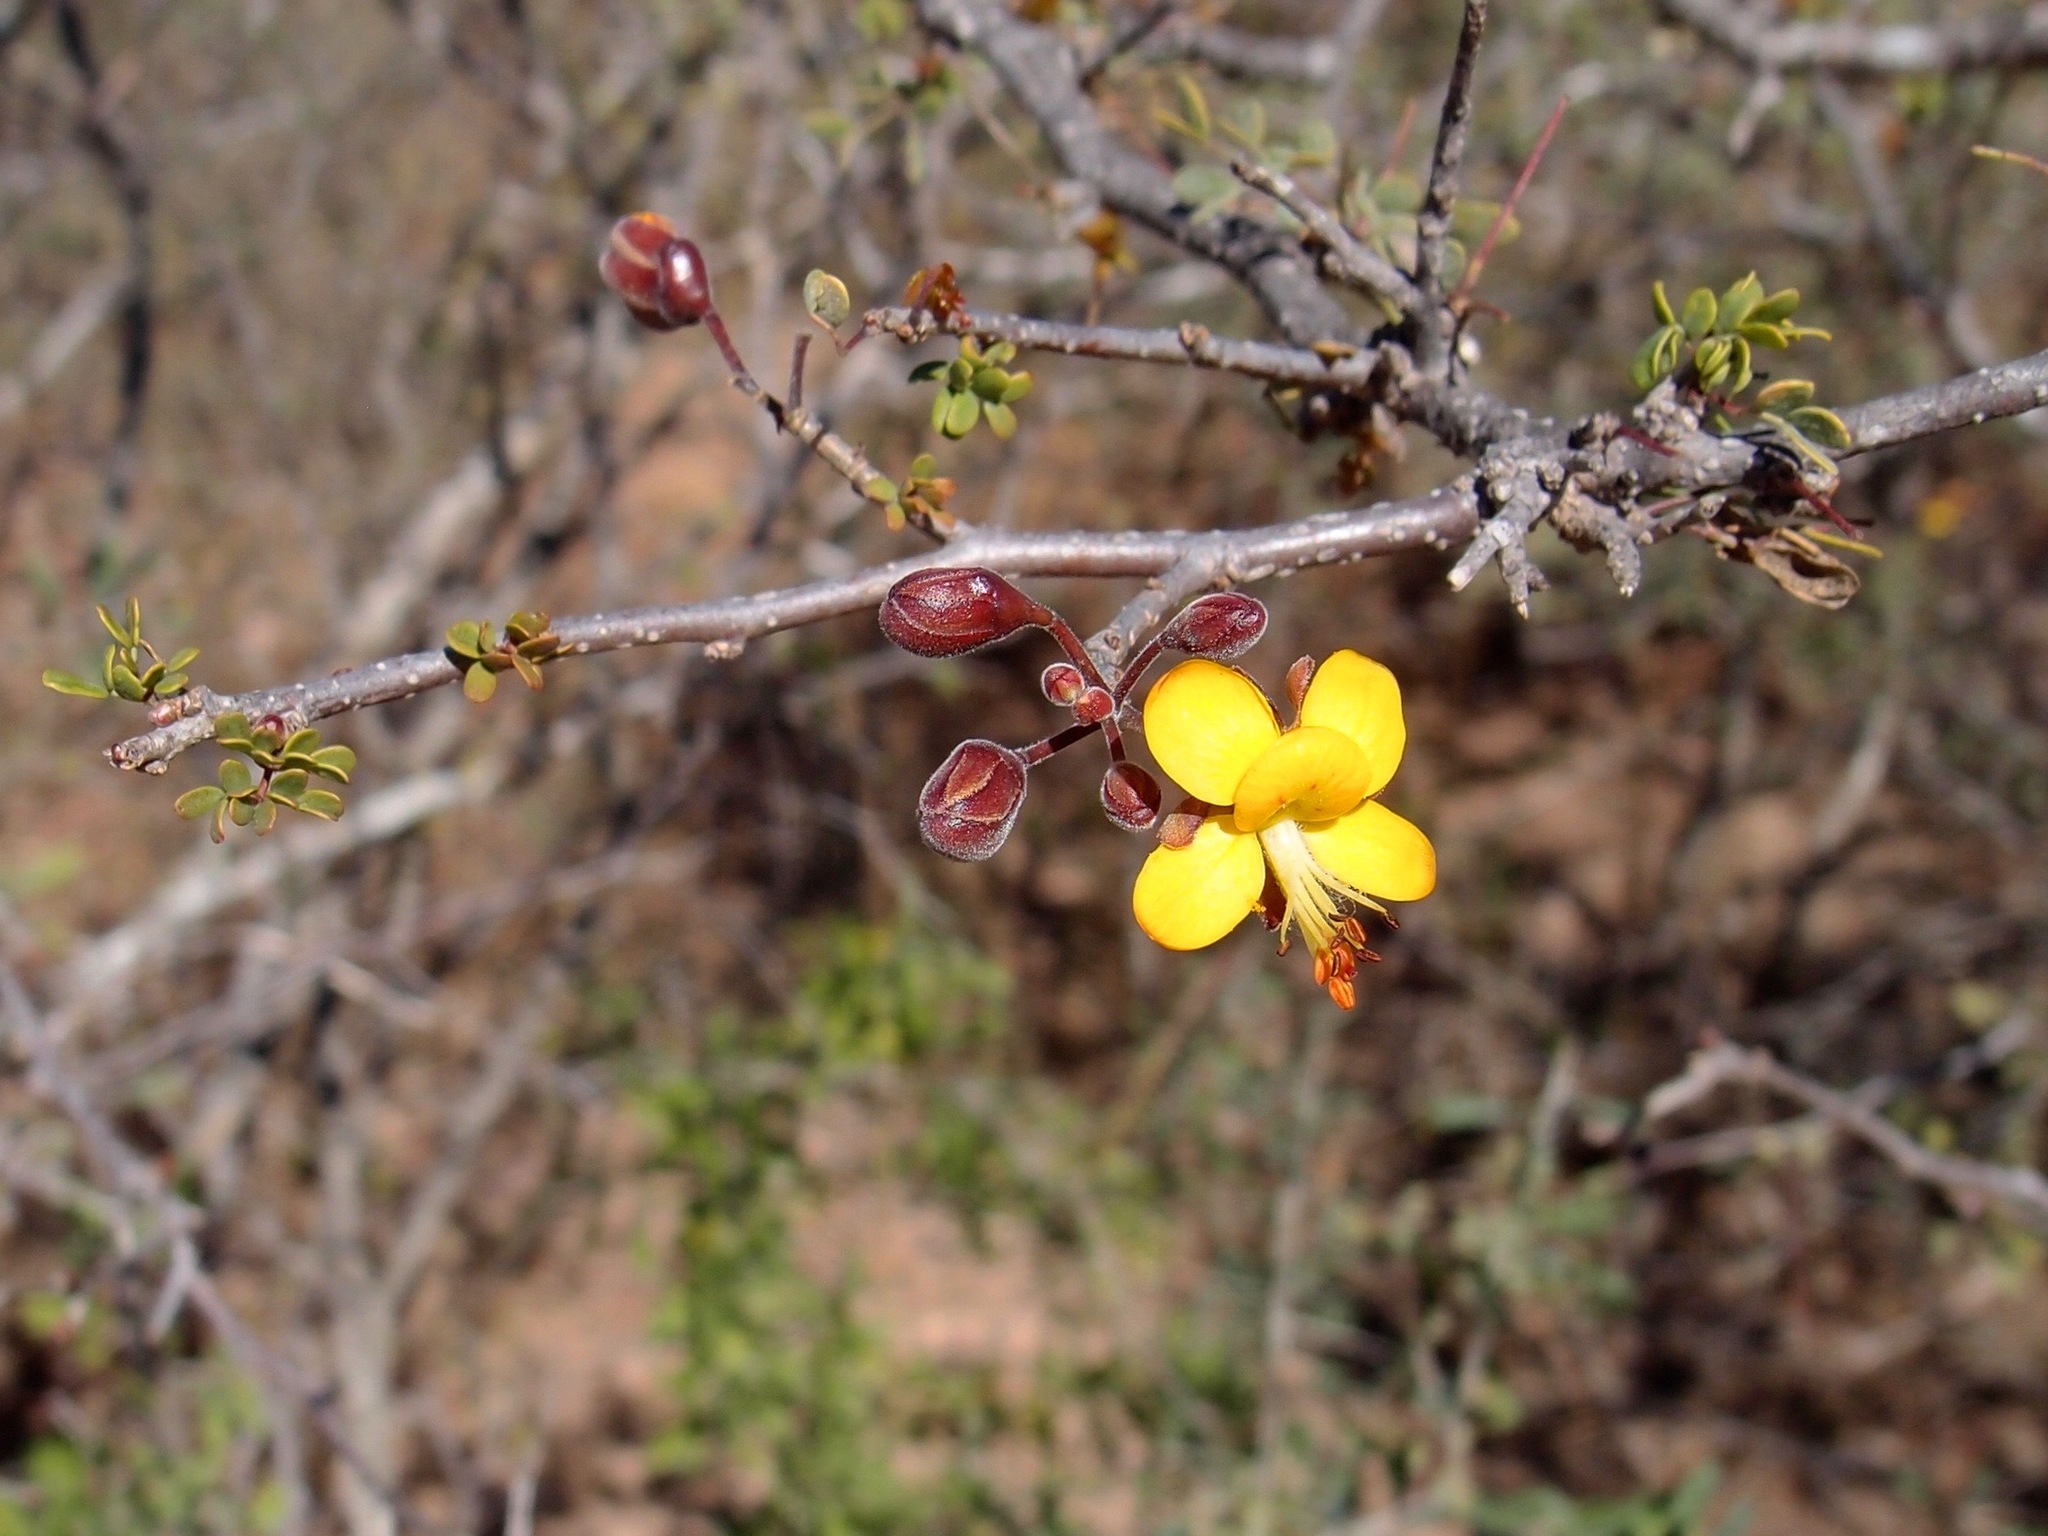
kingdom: Plantae
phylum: Tracheophyta
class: Magnoliopsida
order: Fabales
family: Fabaceae
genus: Erythrostemon
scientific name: Erythrostemon palmeri
